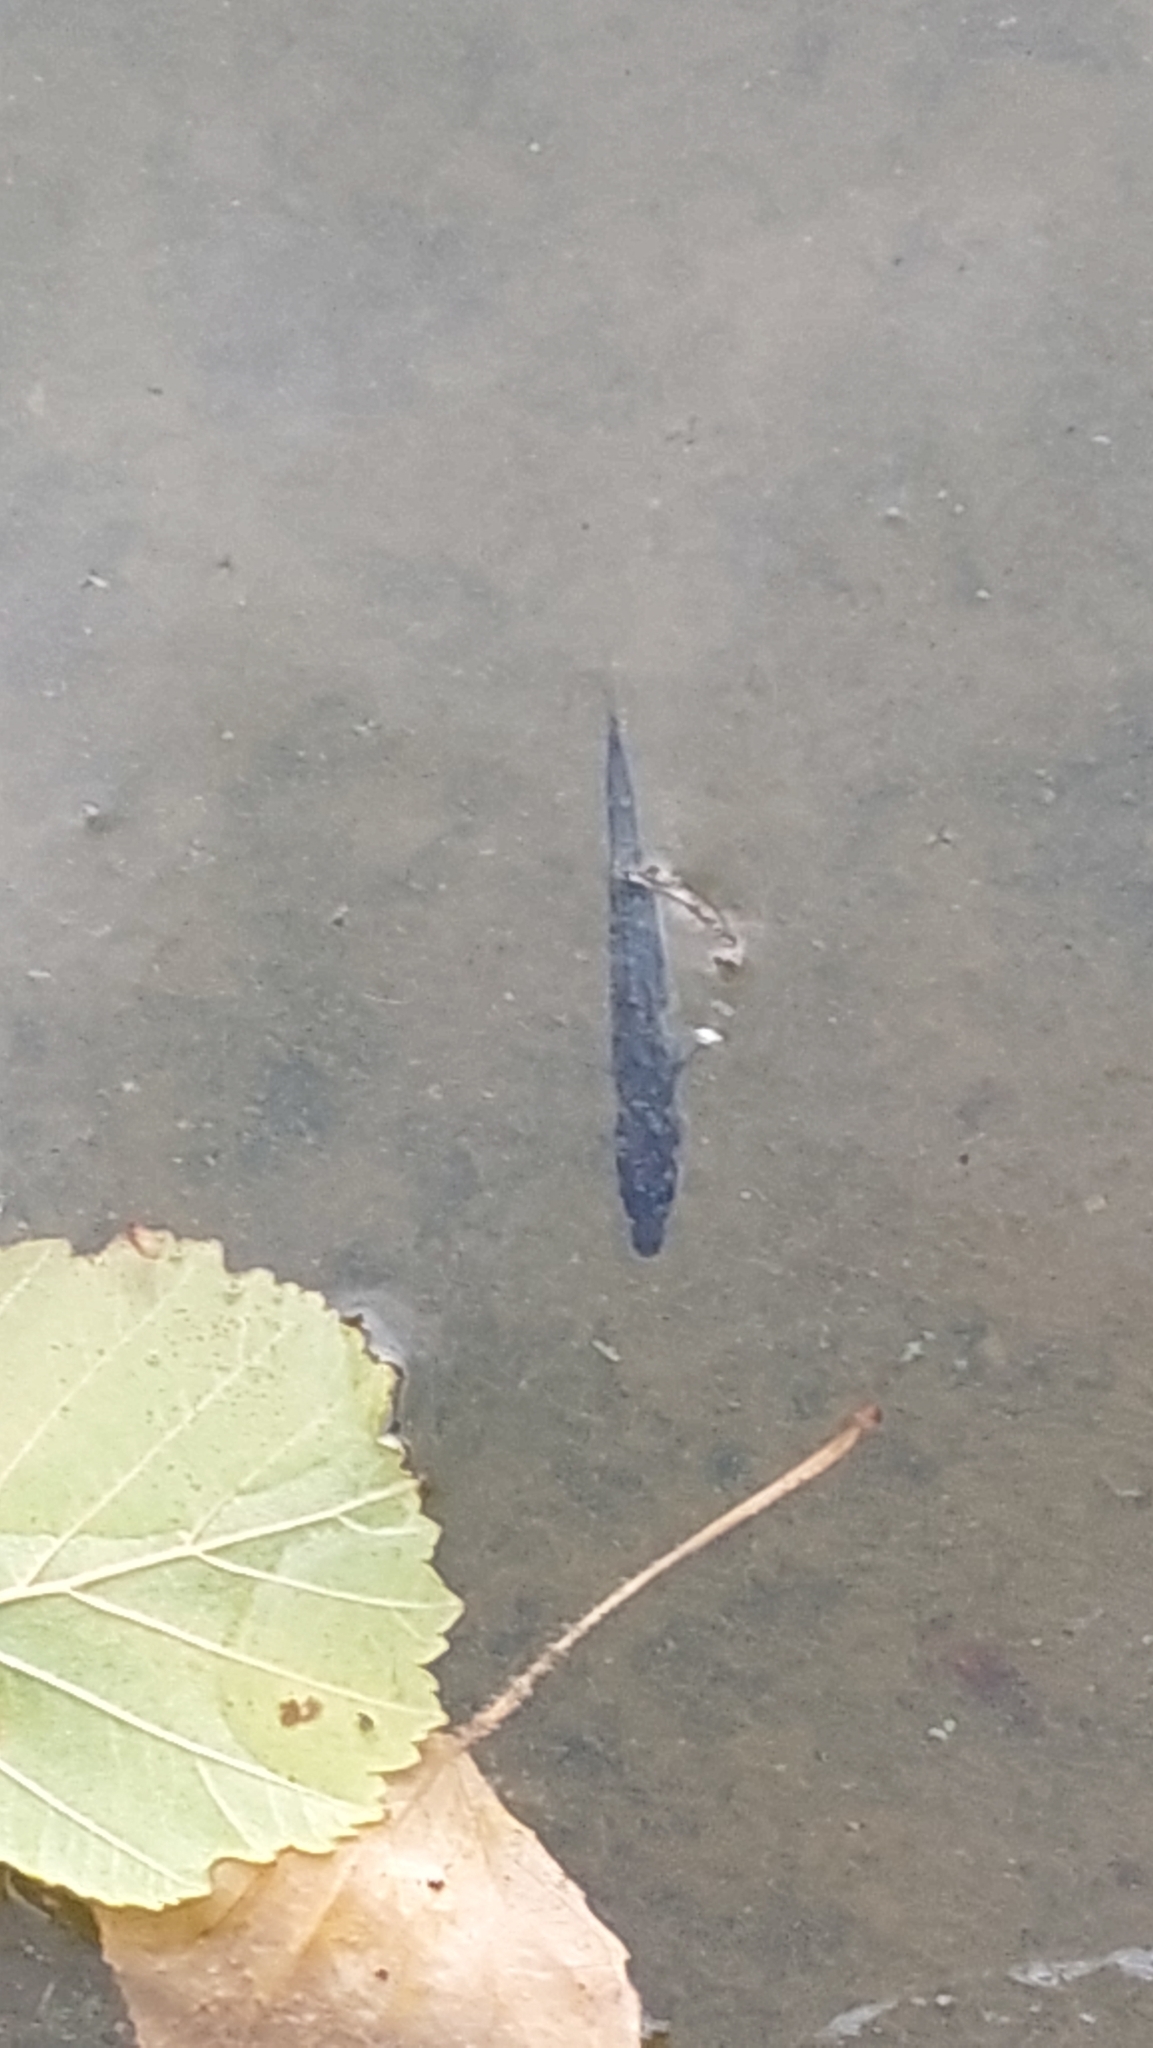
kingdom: Animalia
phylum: Chordata
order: Gasterosteiformes
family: Gasterosteidae
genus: Gasterosteus
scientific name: Gasterosteus aculeatus
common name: Three-spined stickleback
